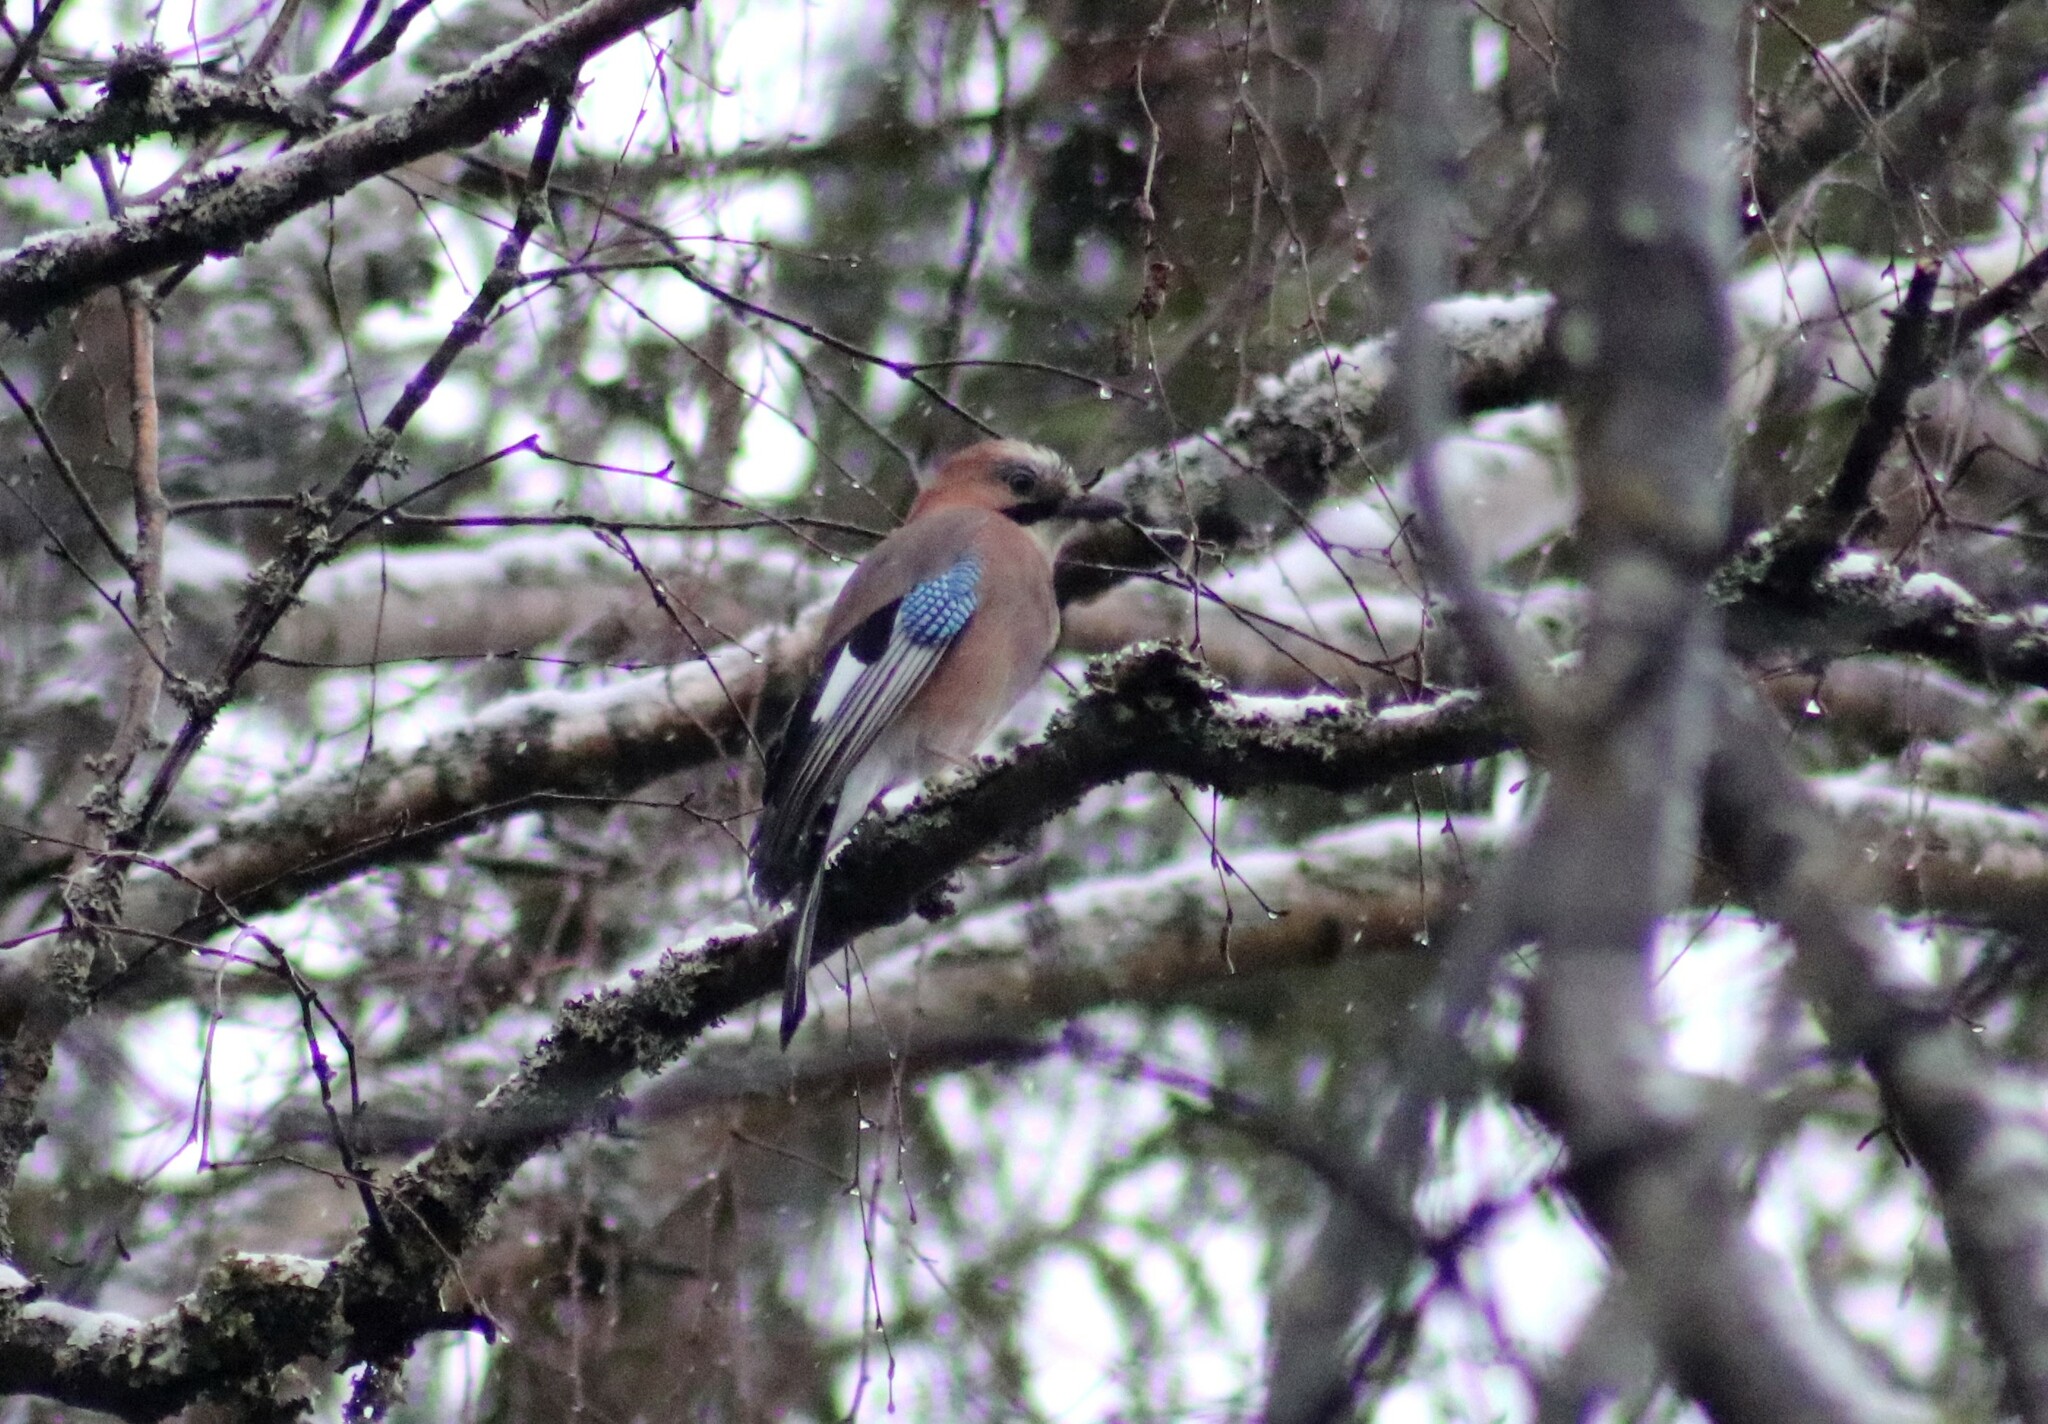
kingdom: Animalia
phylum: Chordata
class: Aves
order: Passeriformes
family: Corvidae
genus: Garrulus
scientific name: Garrulus glandarius
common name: Eurasian jay
